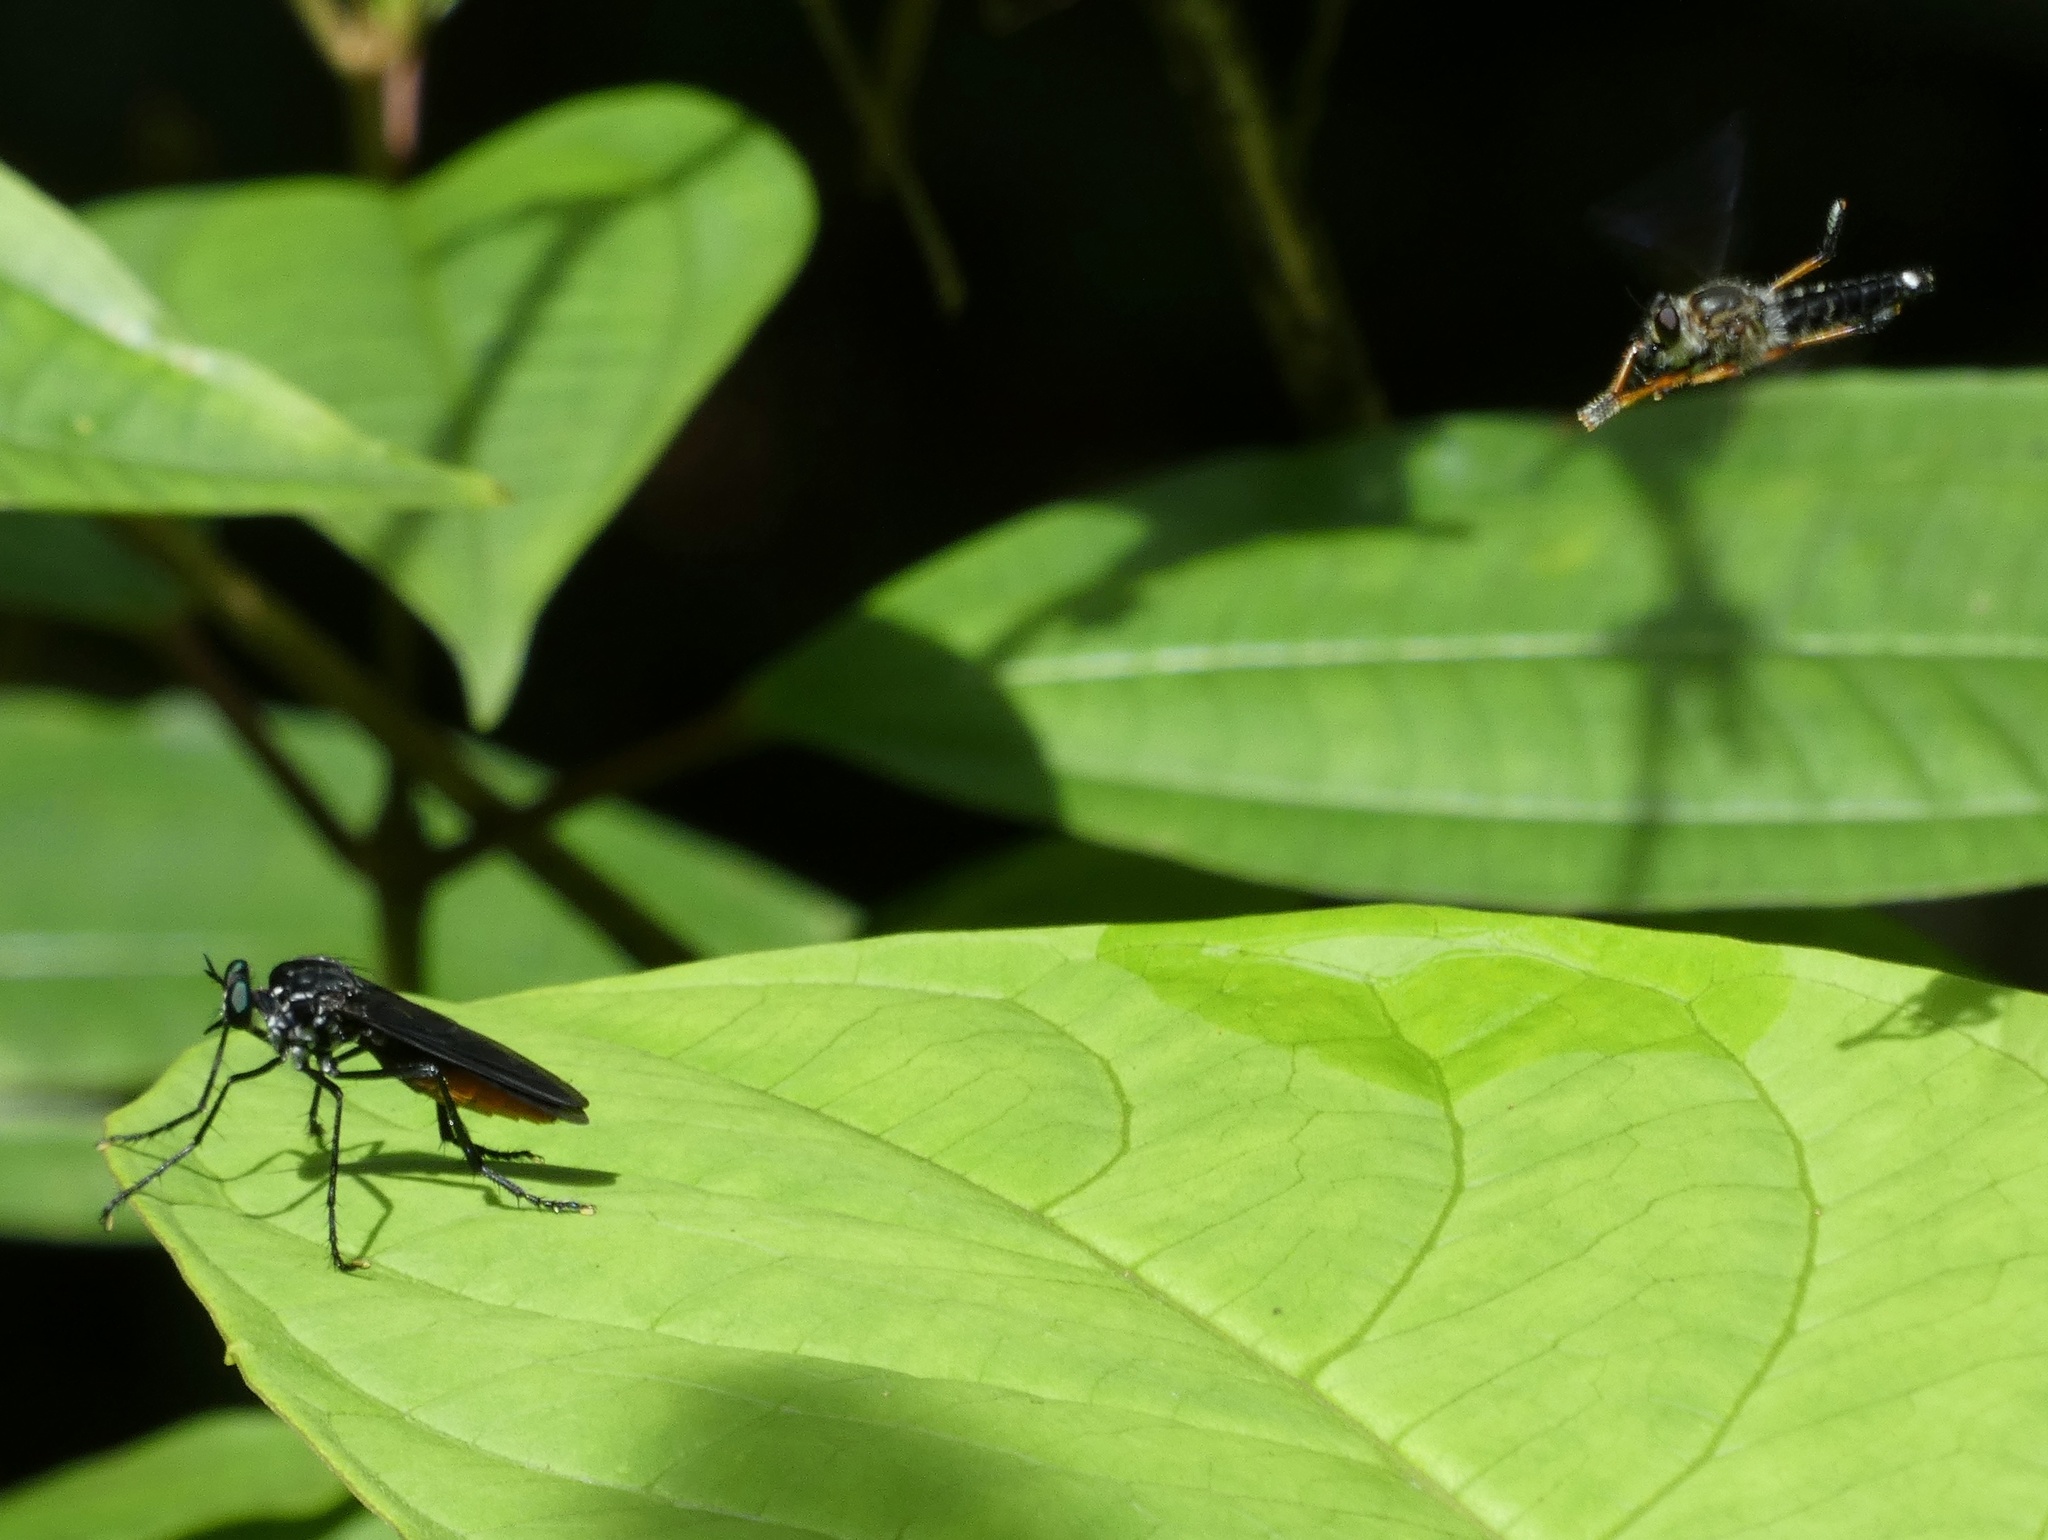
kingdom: Animalia
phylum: Arthropoda
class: Insecta
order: Diptera
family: Asilidae
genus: Archilestris
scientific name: Archilestris excellens
